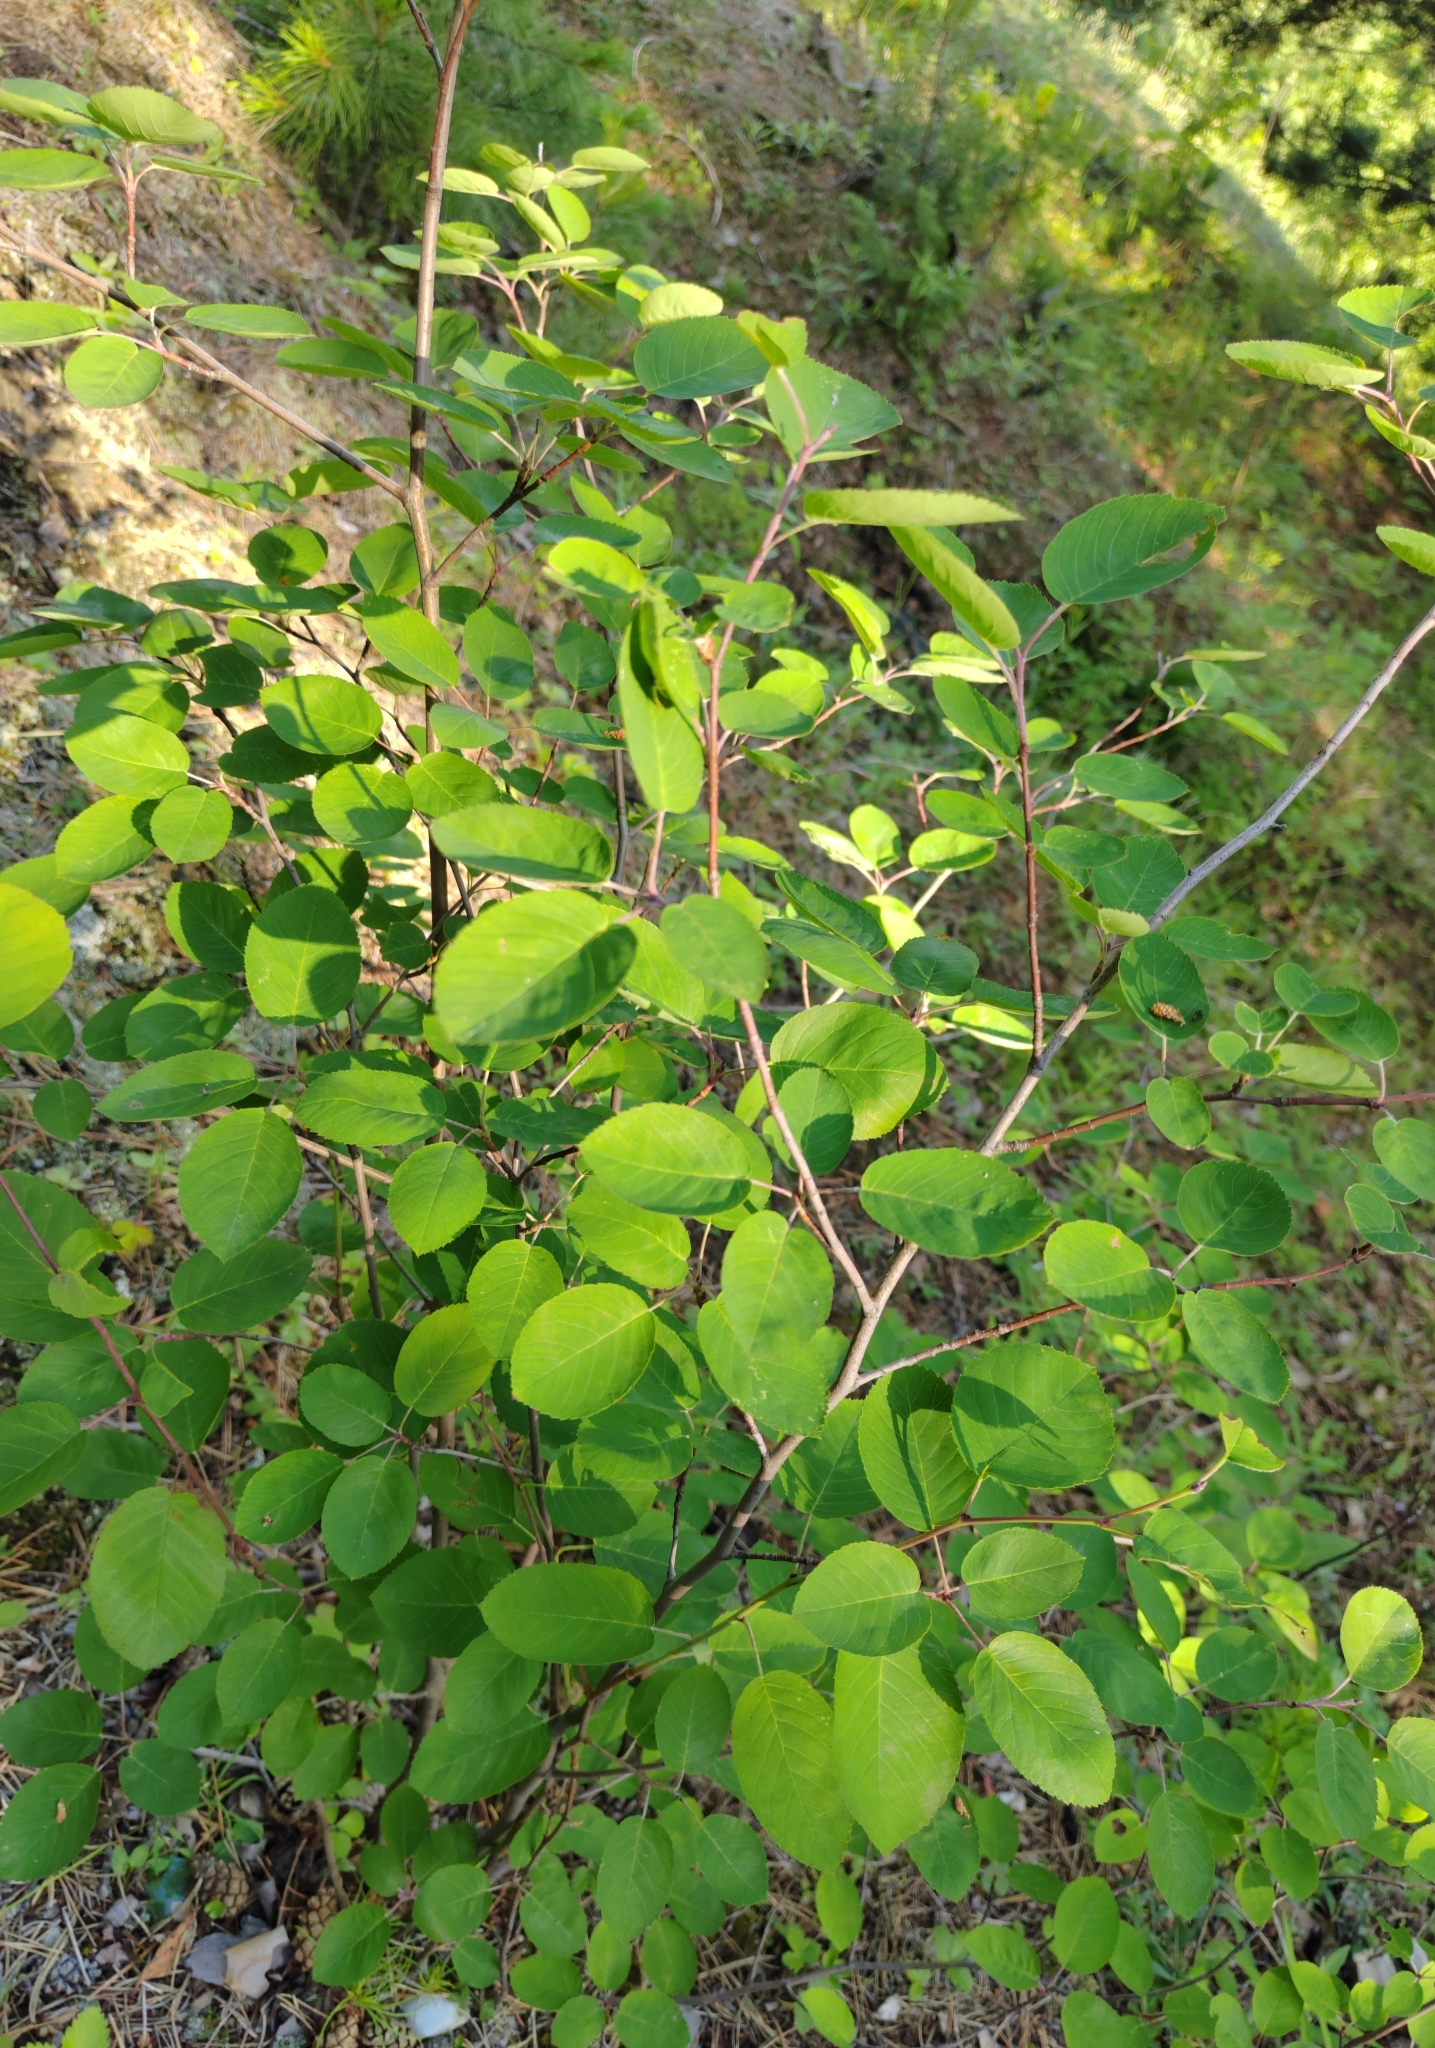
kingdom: Plantae
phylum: Tracheophyta
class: Magnoliopsida
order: Rosales
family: Rosaceae
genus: Amelanchier
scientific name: Amelanchier
